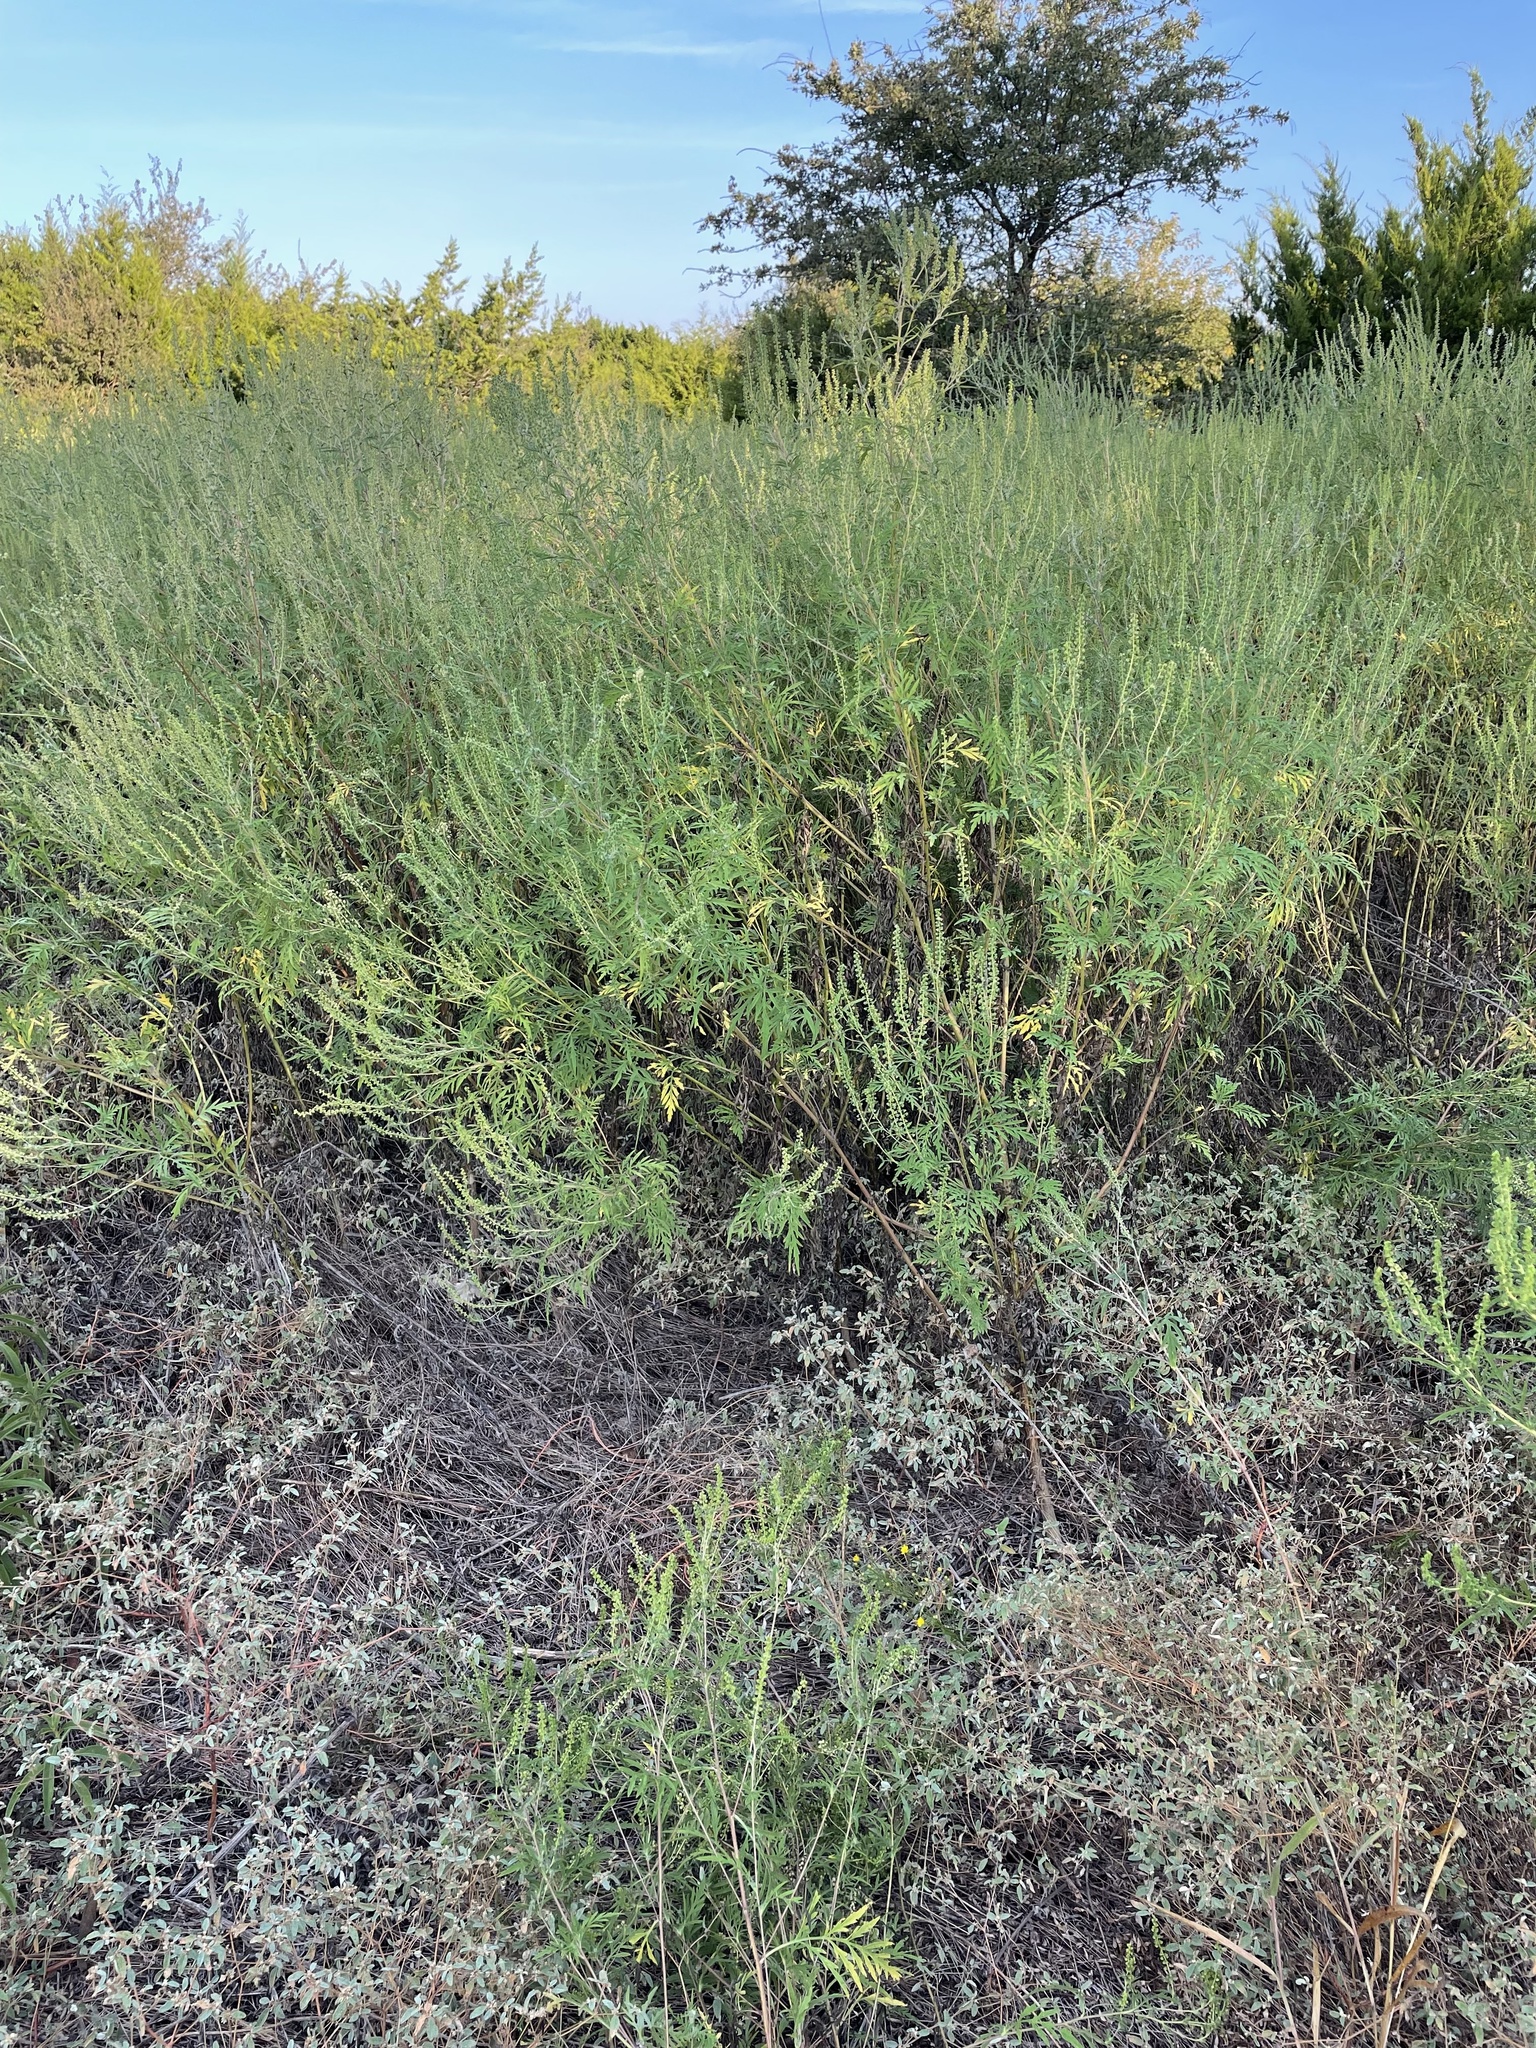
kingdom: Plantae
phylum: Tracheophyta
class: Magnoliopsida
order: Asterales
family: Asteraceae
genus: Ambrosia
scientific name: Ambrosia psilostachya
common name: Perennial ragweed
